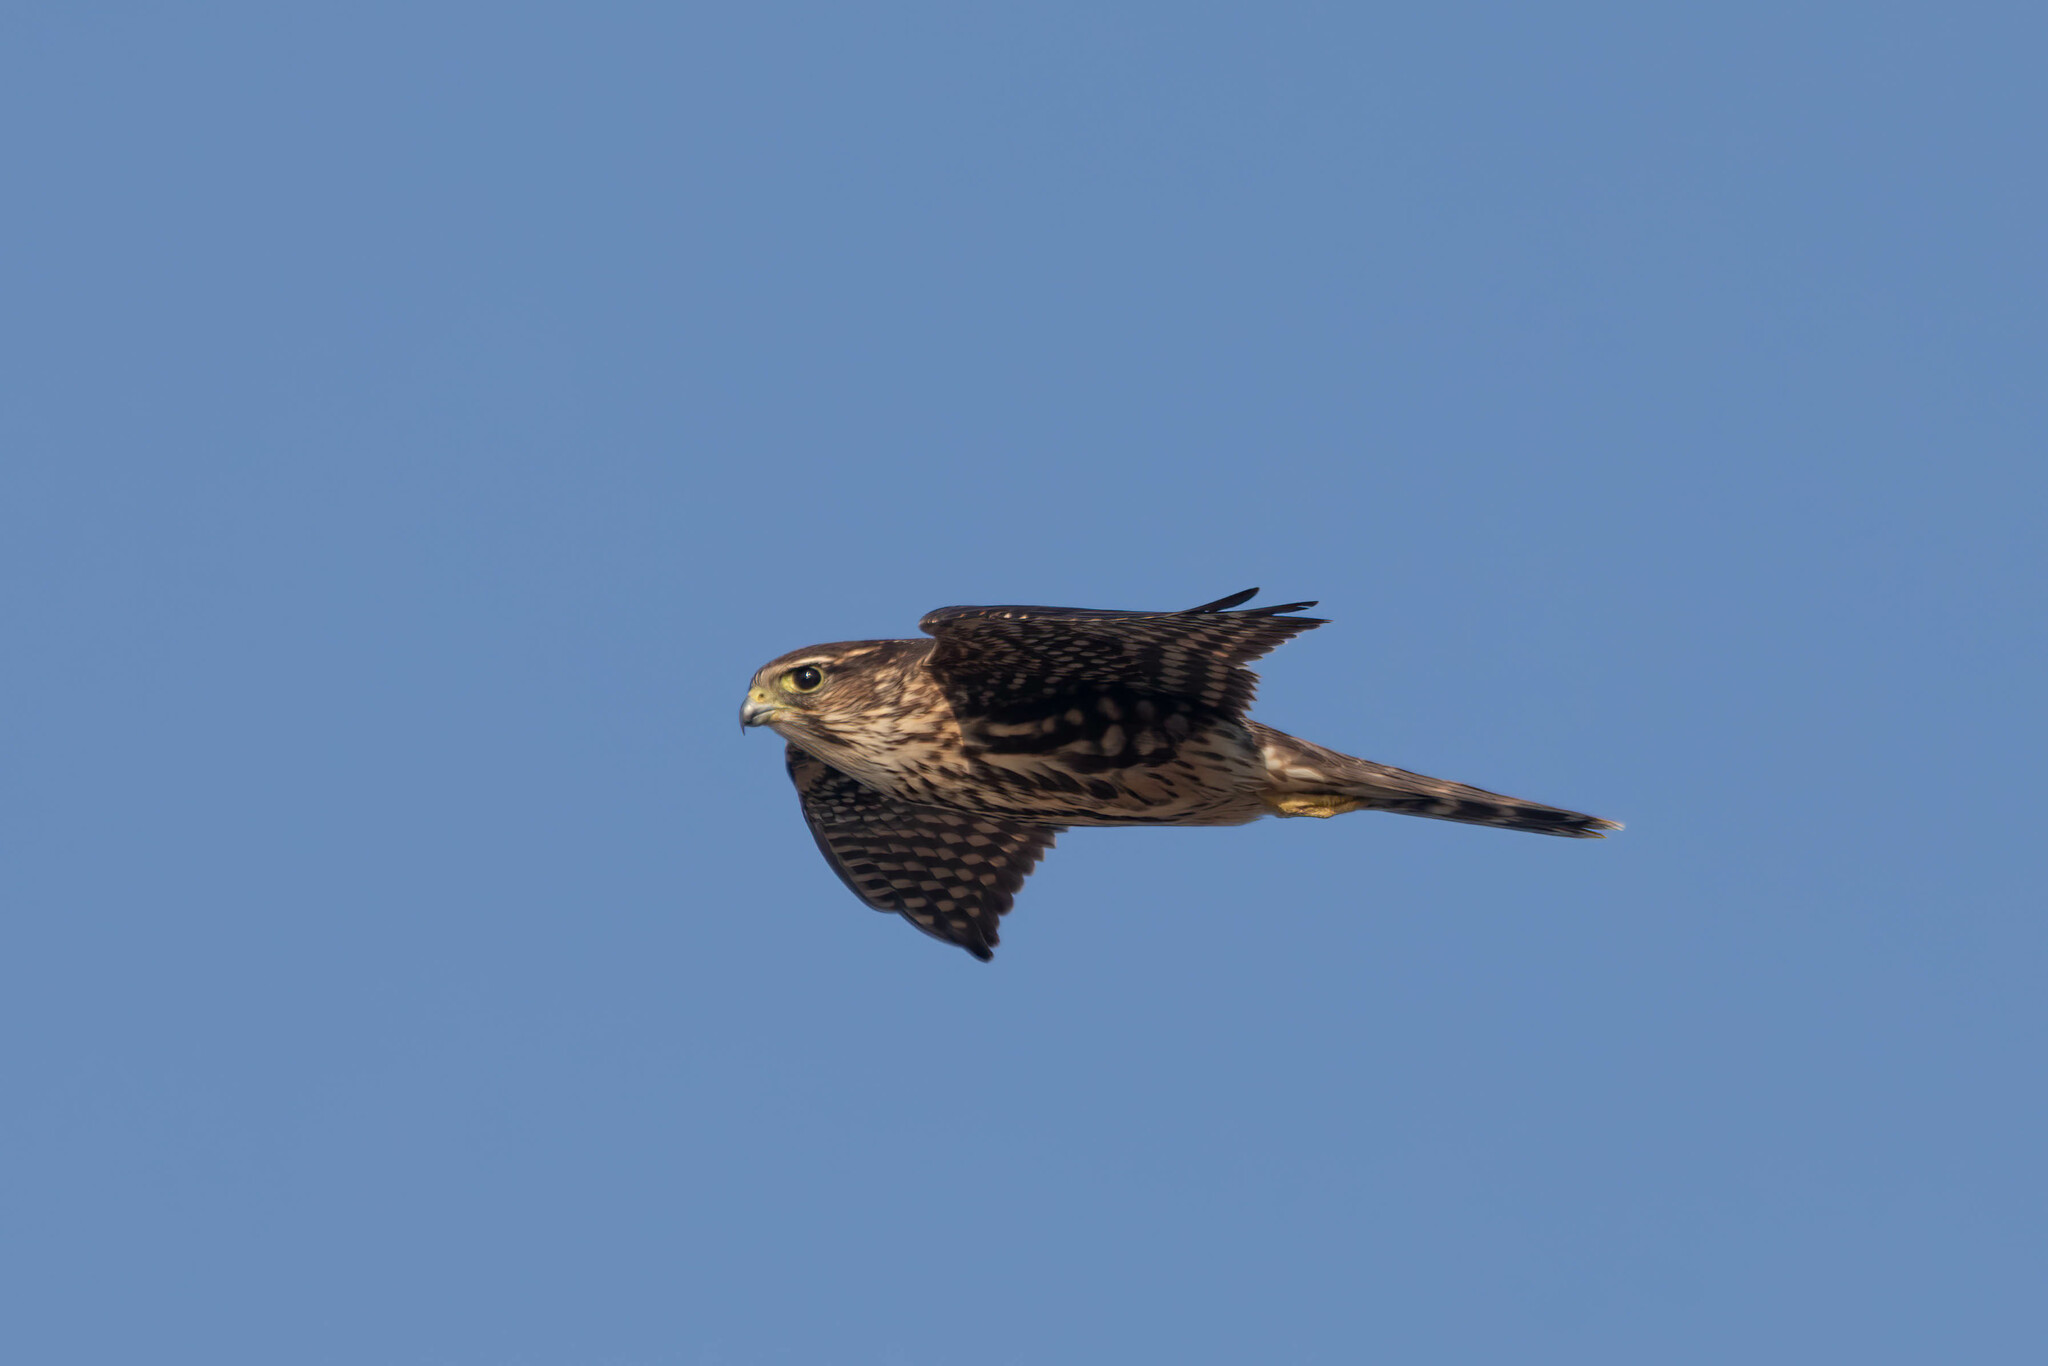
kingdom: Animalia
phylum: Chordata
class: Aves
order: Falconiformes
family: Falconidae
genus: Falco
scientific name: Falco columbarius
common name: Merlin
